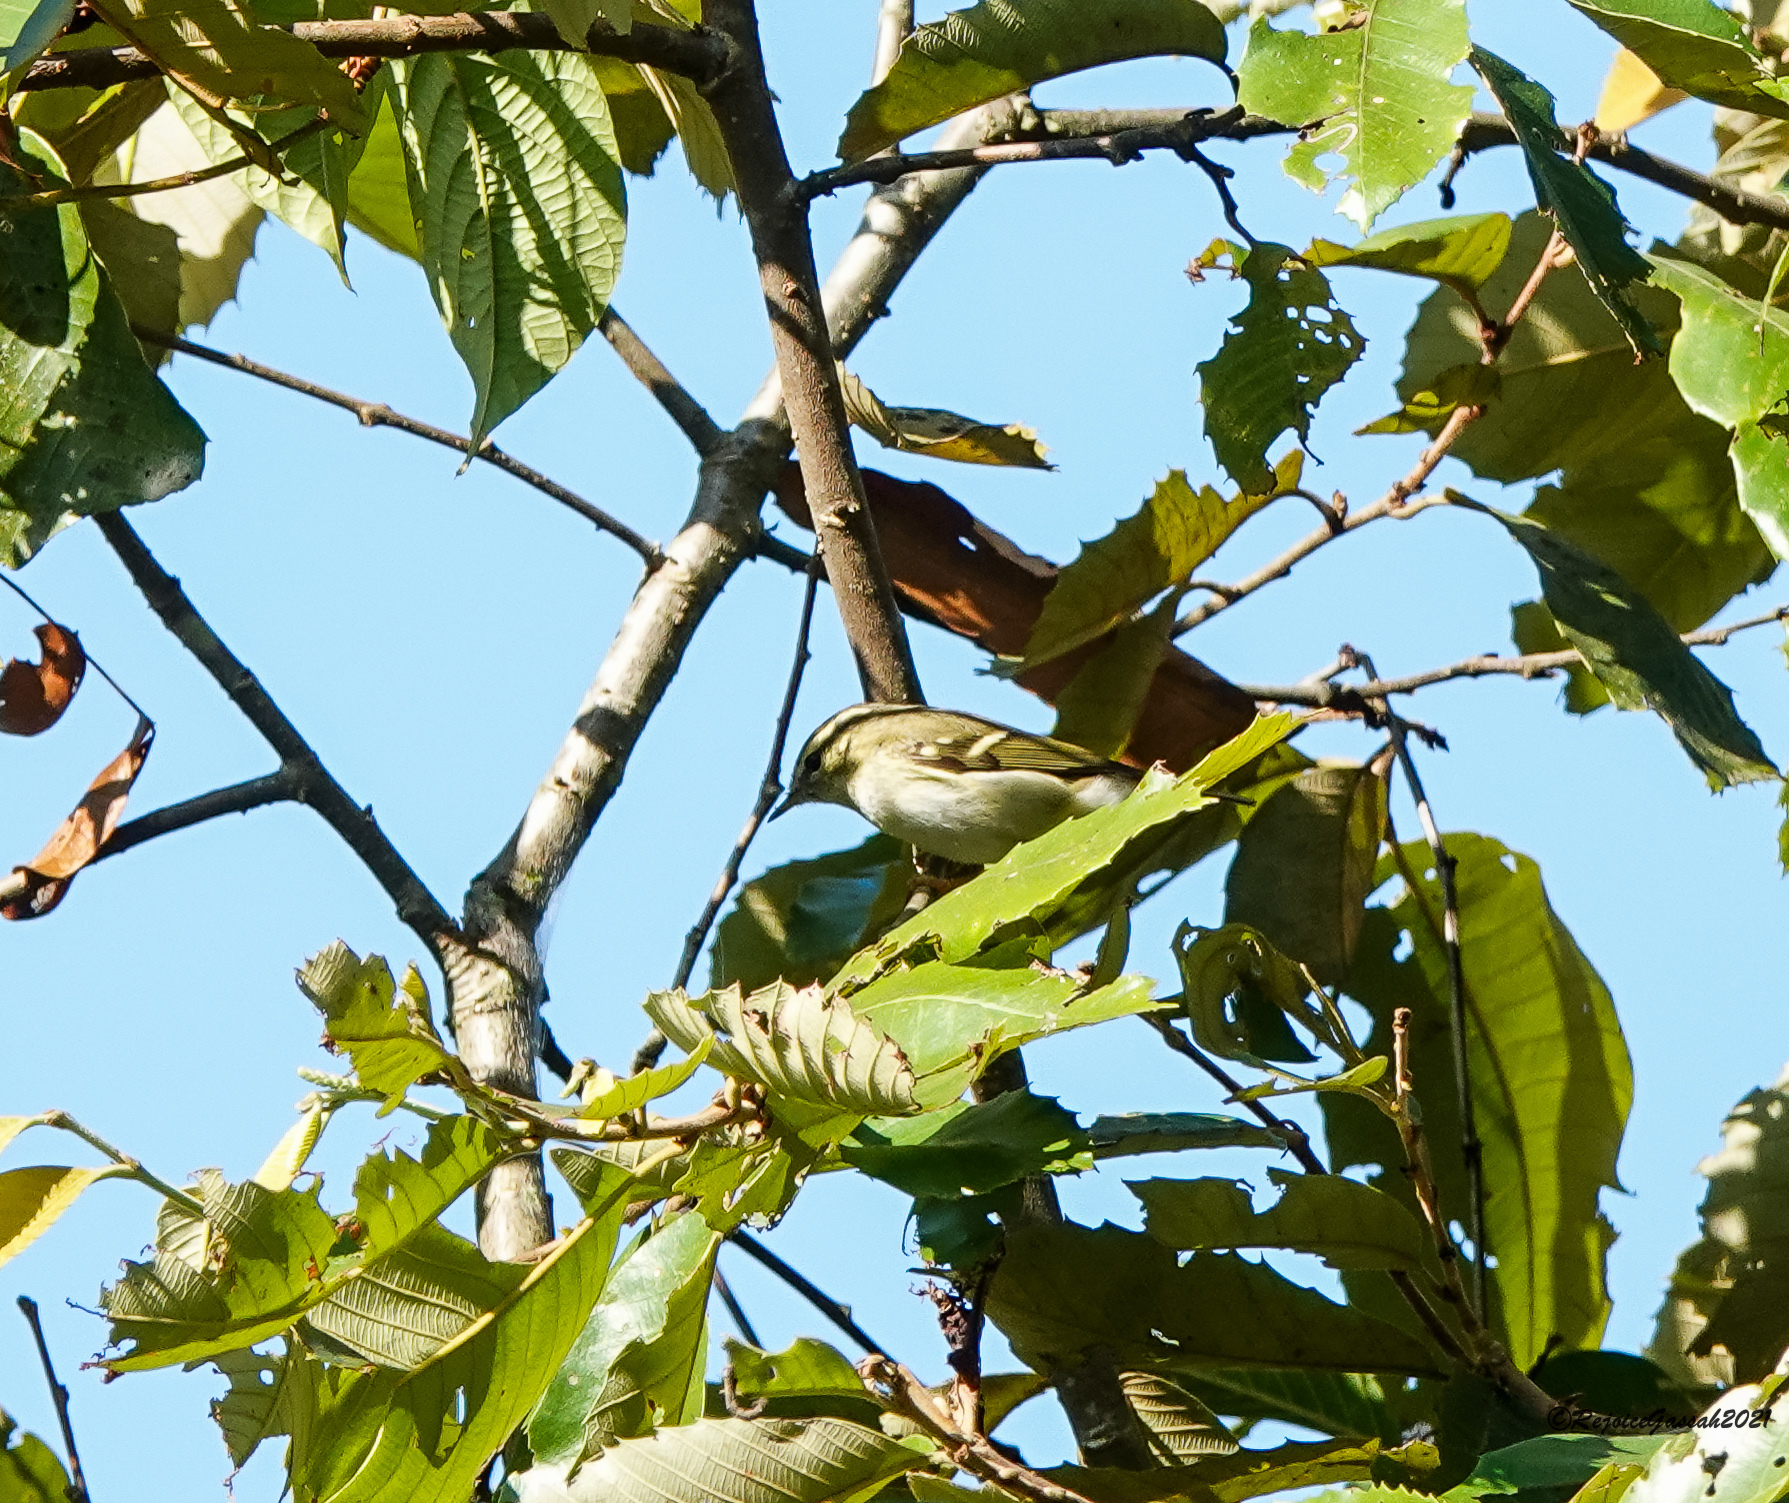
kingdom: Animalia
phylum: Chordata
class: Aves
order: Passeriformes
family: Phylloscopidae
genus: Phylloscopus
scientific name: Phylloscopus inornatus
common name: Yellow-browed warbler
